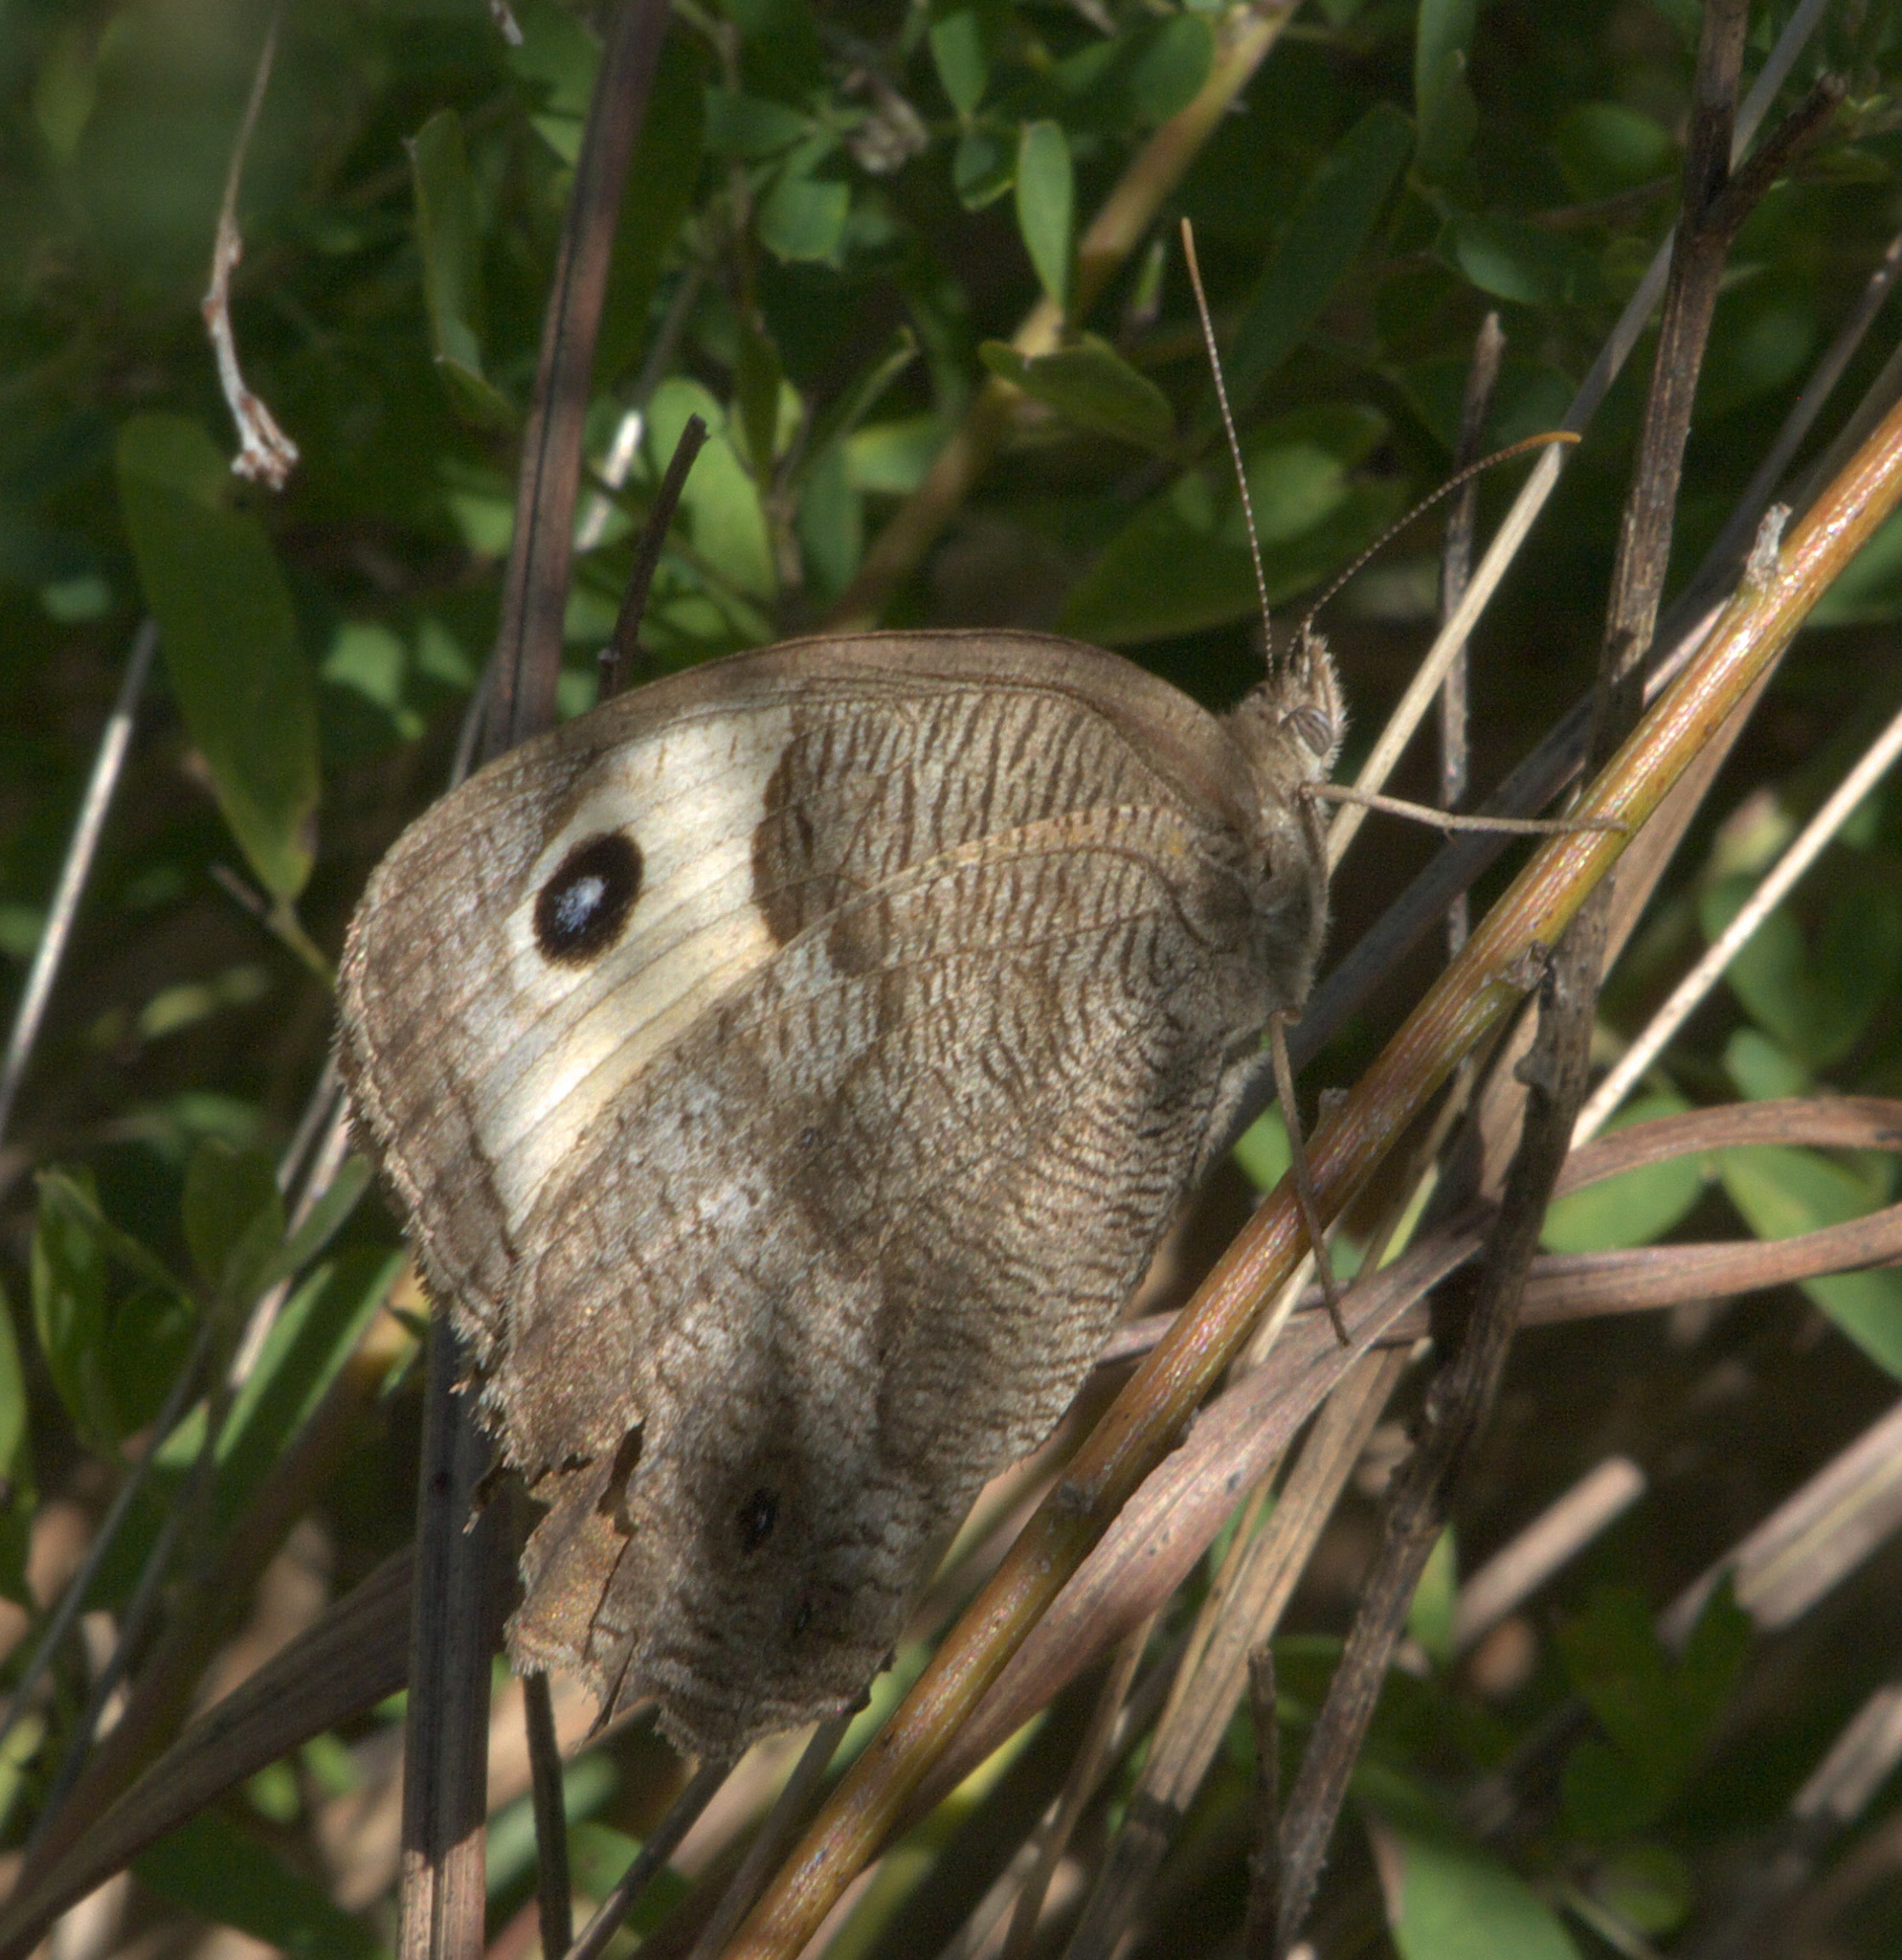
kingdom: Animalia
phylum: Arthropoda
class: Insecta
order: Lepidoptera
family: Nymphalidae
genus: Cercyonis
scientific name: Cercyonis pegala
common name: Common wood-nymph
